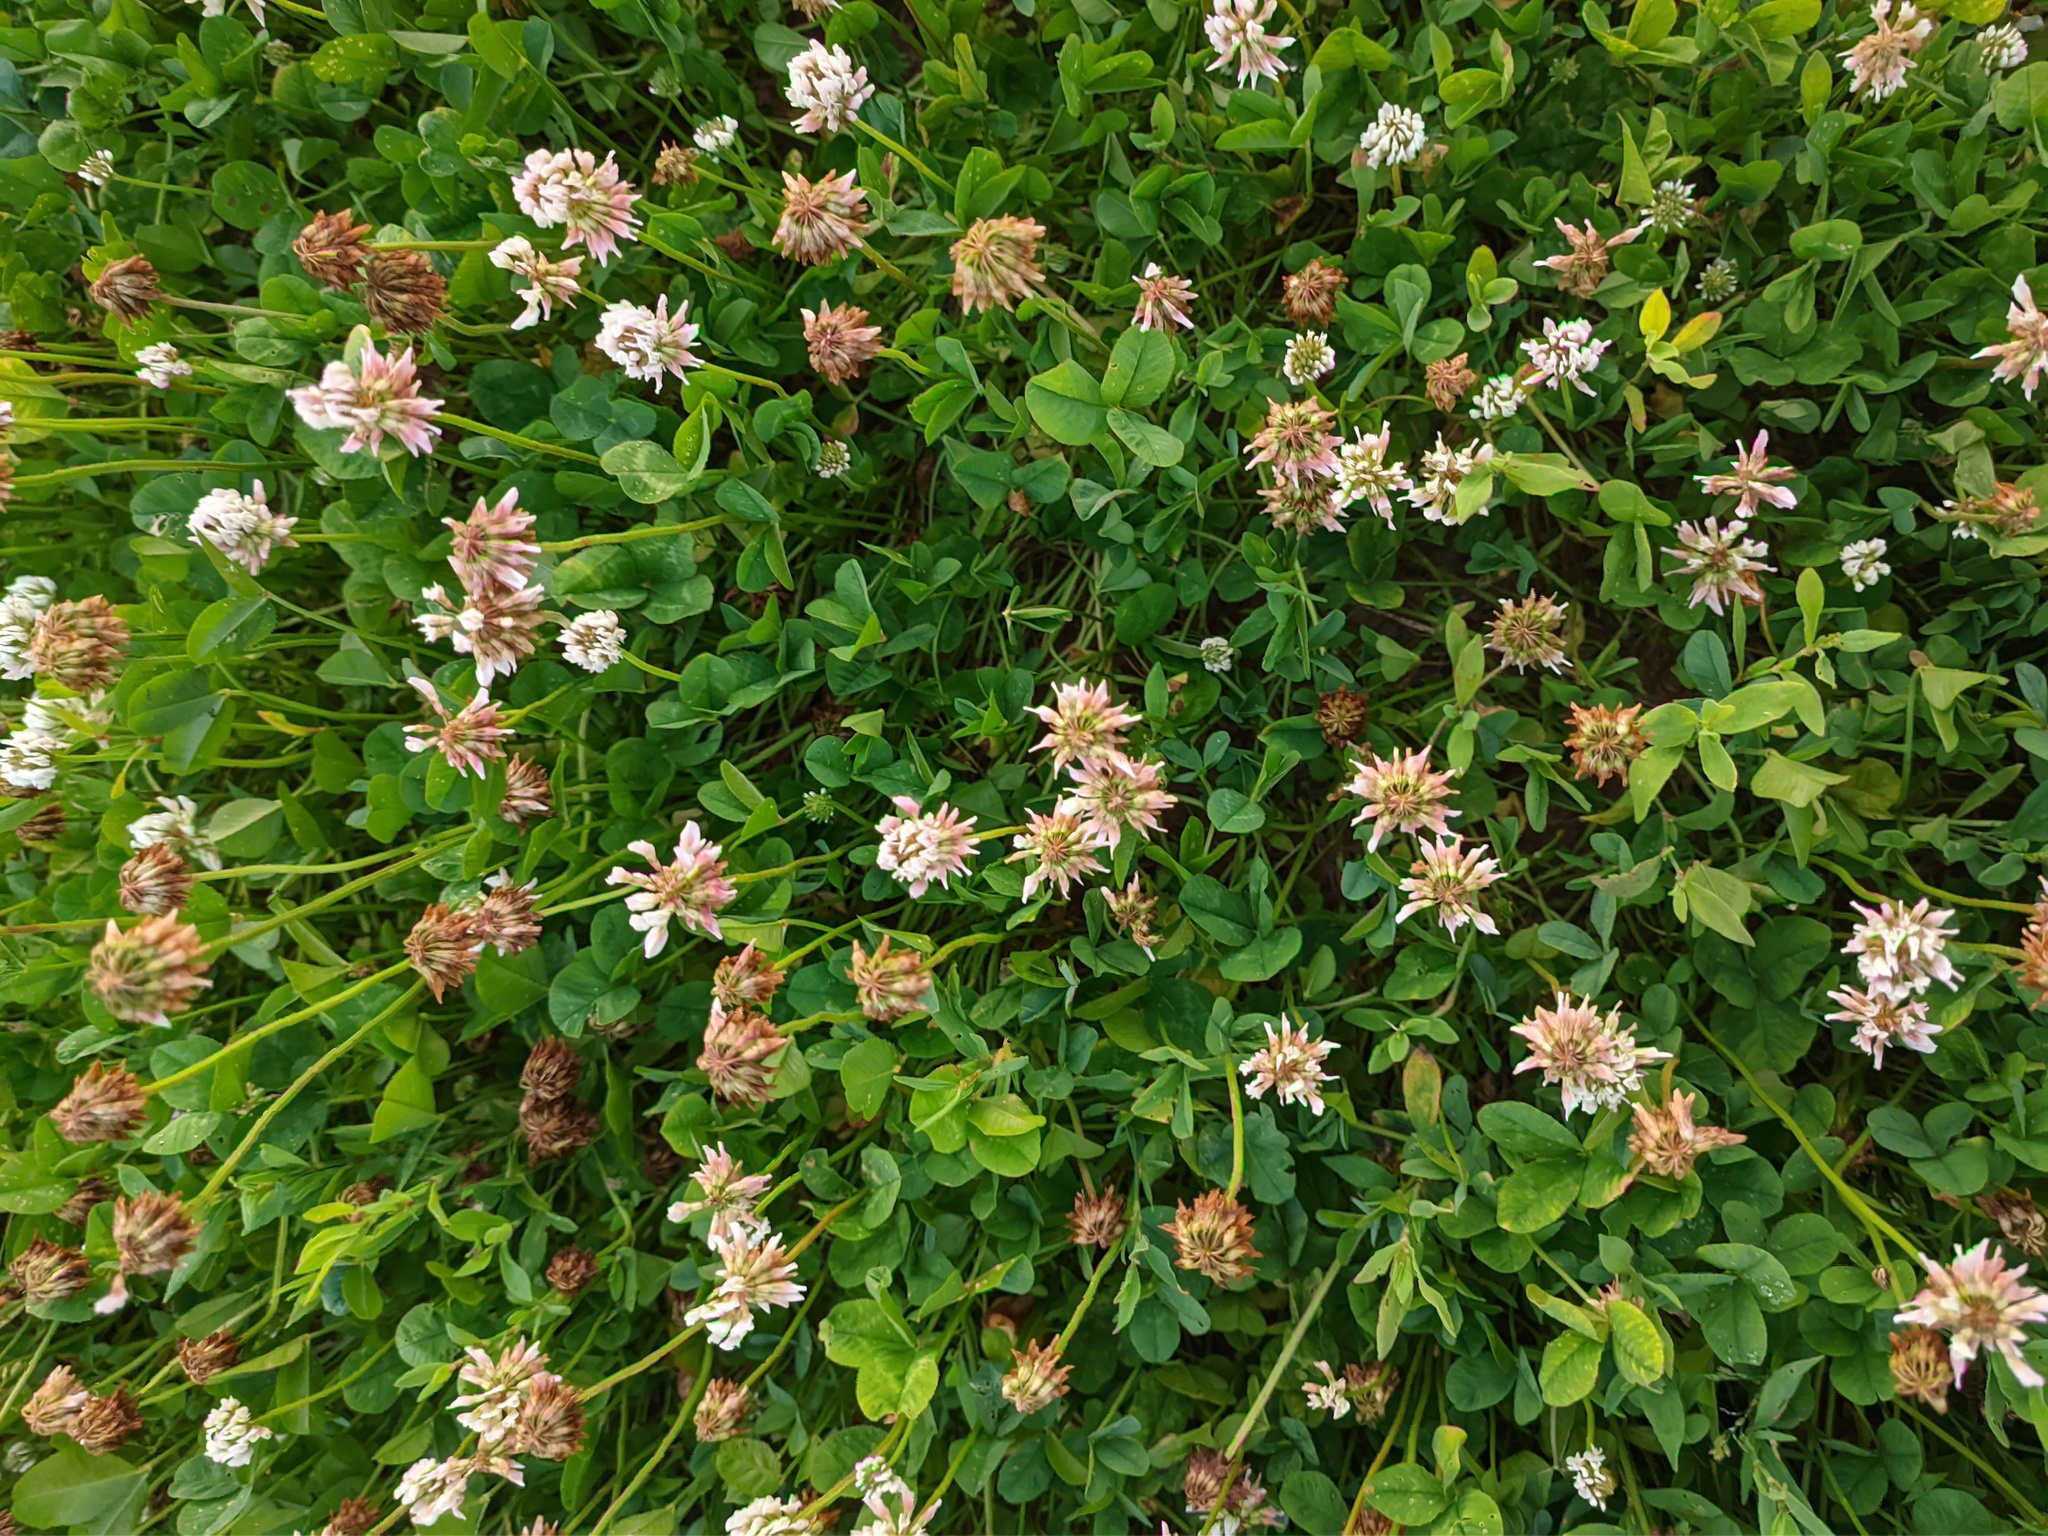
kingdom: Plantae
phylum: Tracheophyta
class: Magnoliopsida
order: Fabales
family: Fabaceae
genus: Trifolium
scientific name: Trifolium repens
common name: White clover
